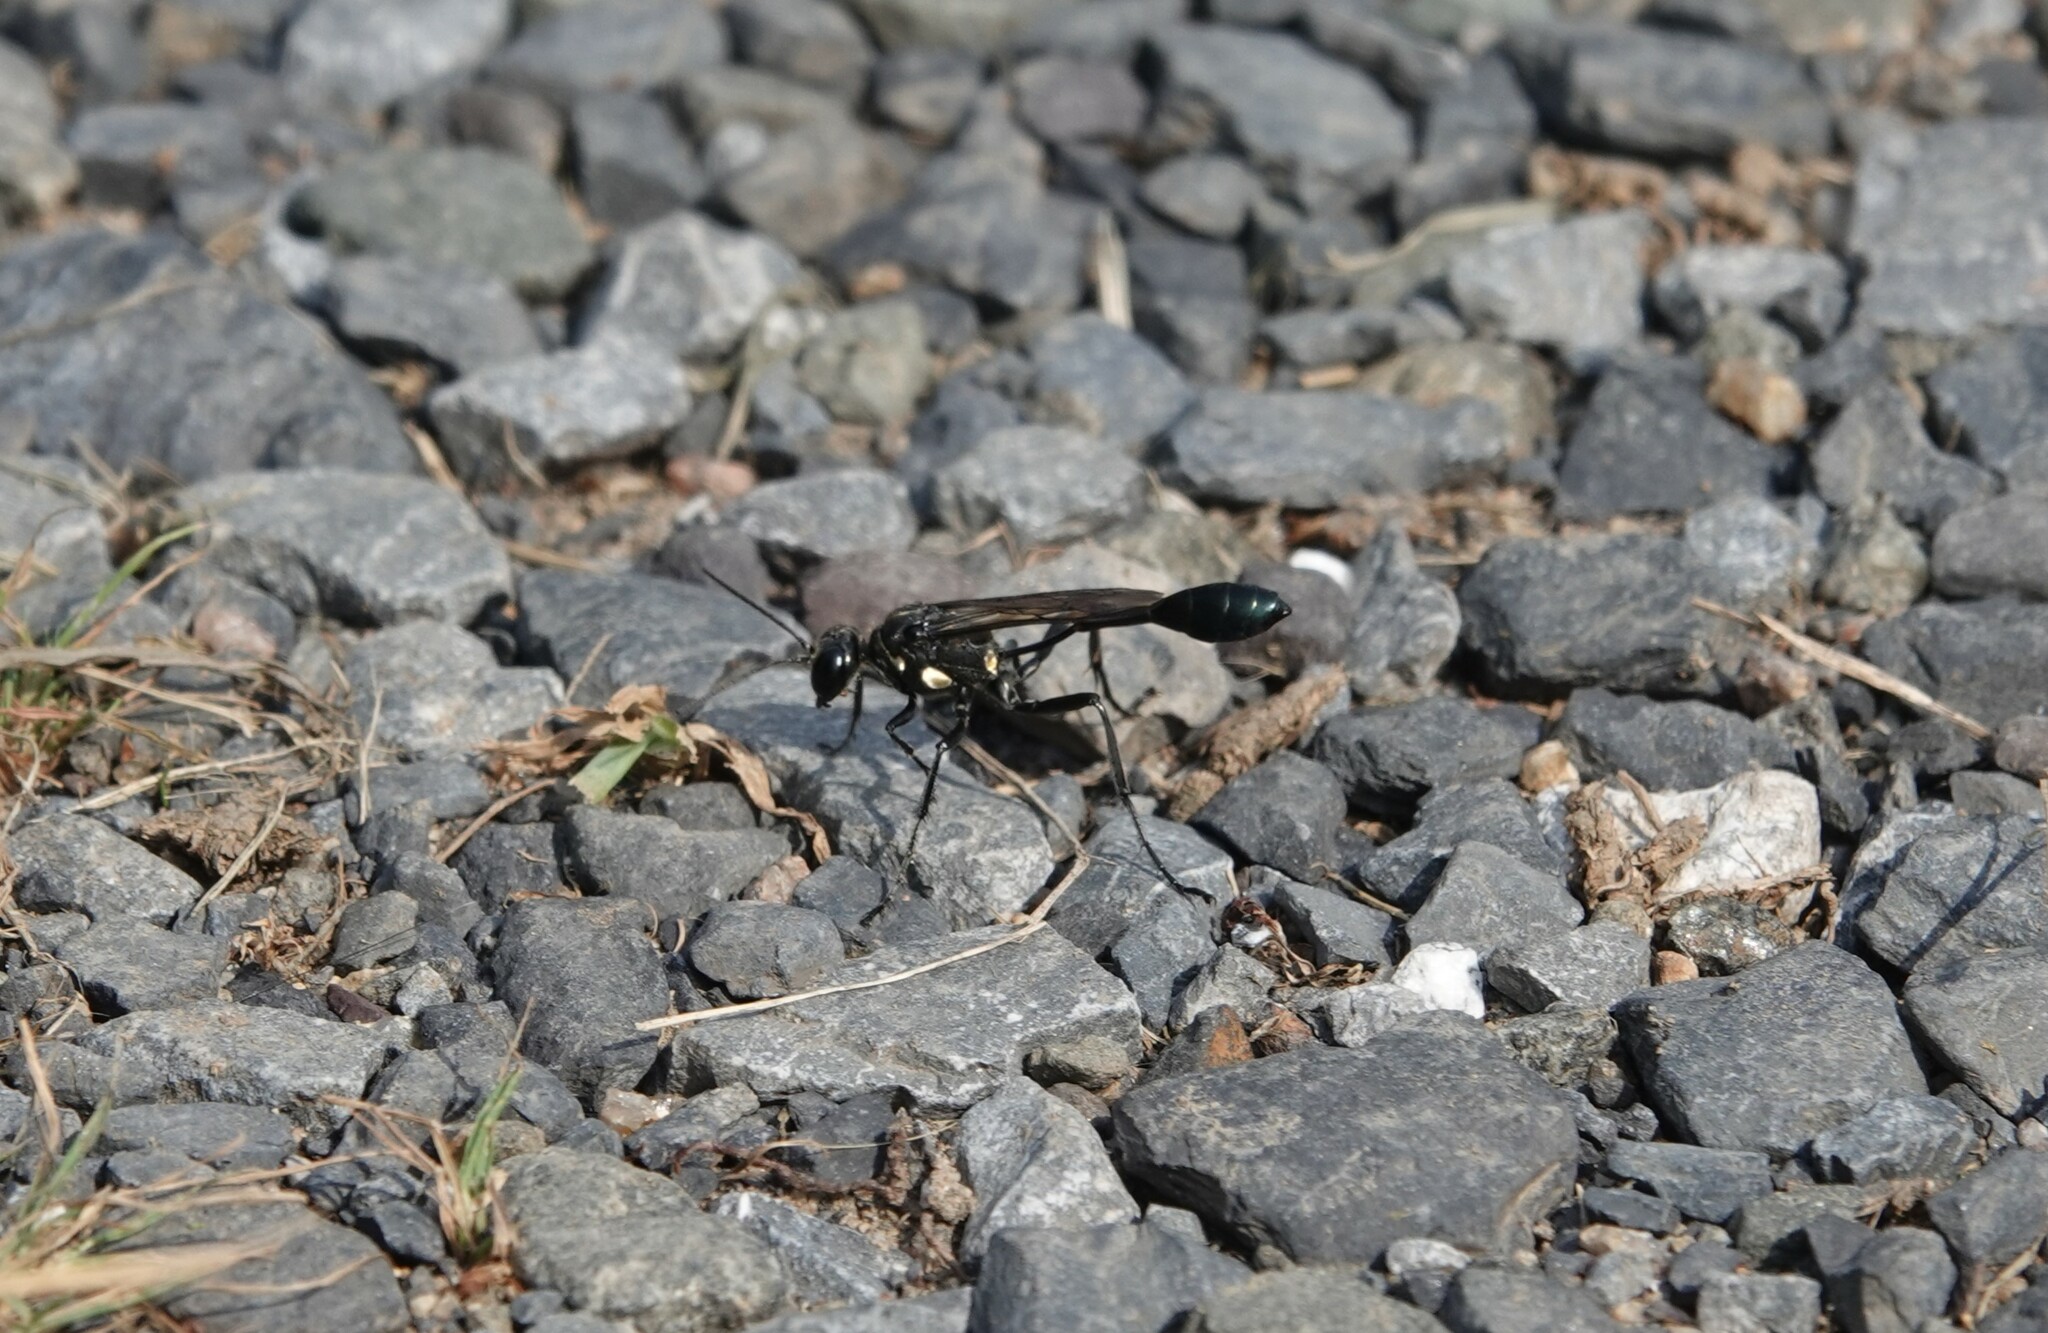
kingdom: Animalia
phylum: Arthropoda
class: Insecta
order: Hymenoptera
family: Sphecidae
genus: Eremnophila
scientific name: Eremnophila aureonotata
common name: Gold-marked thread-waisted wasp
